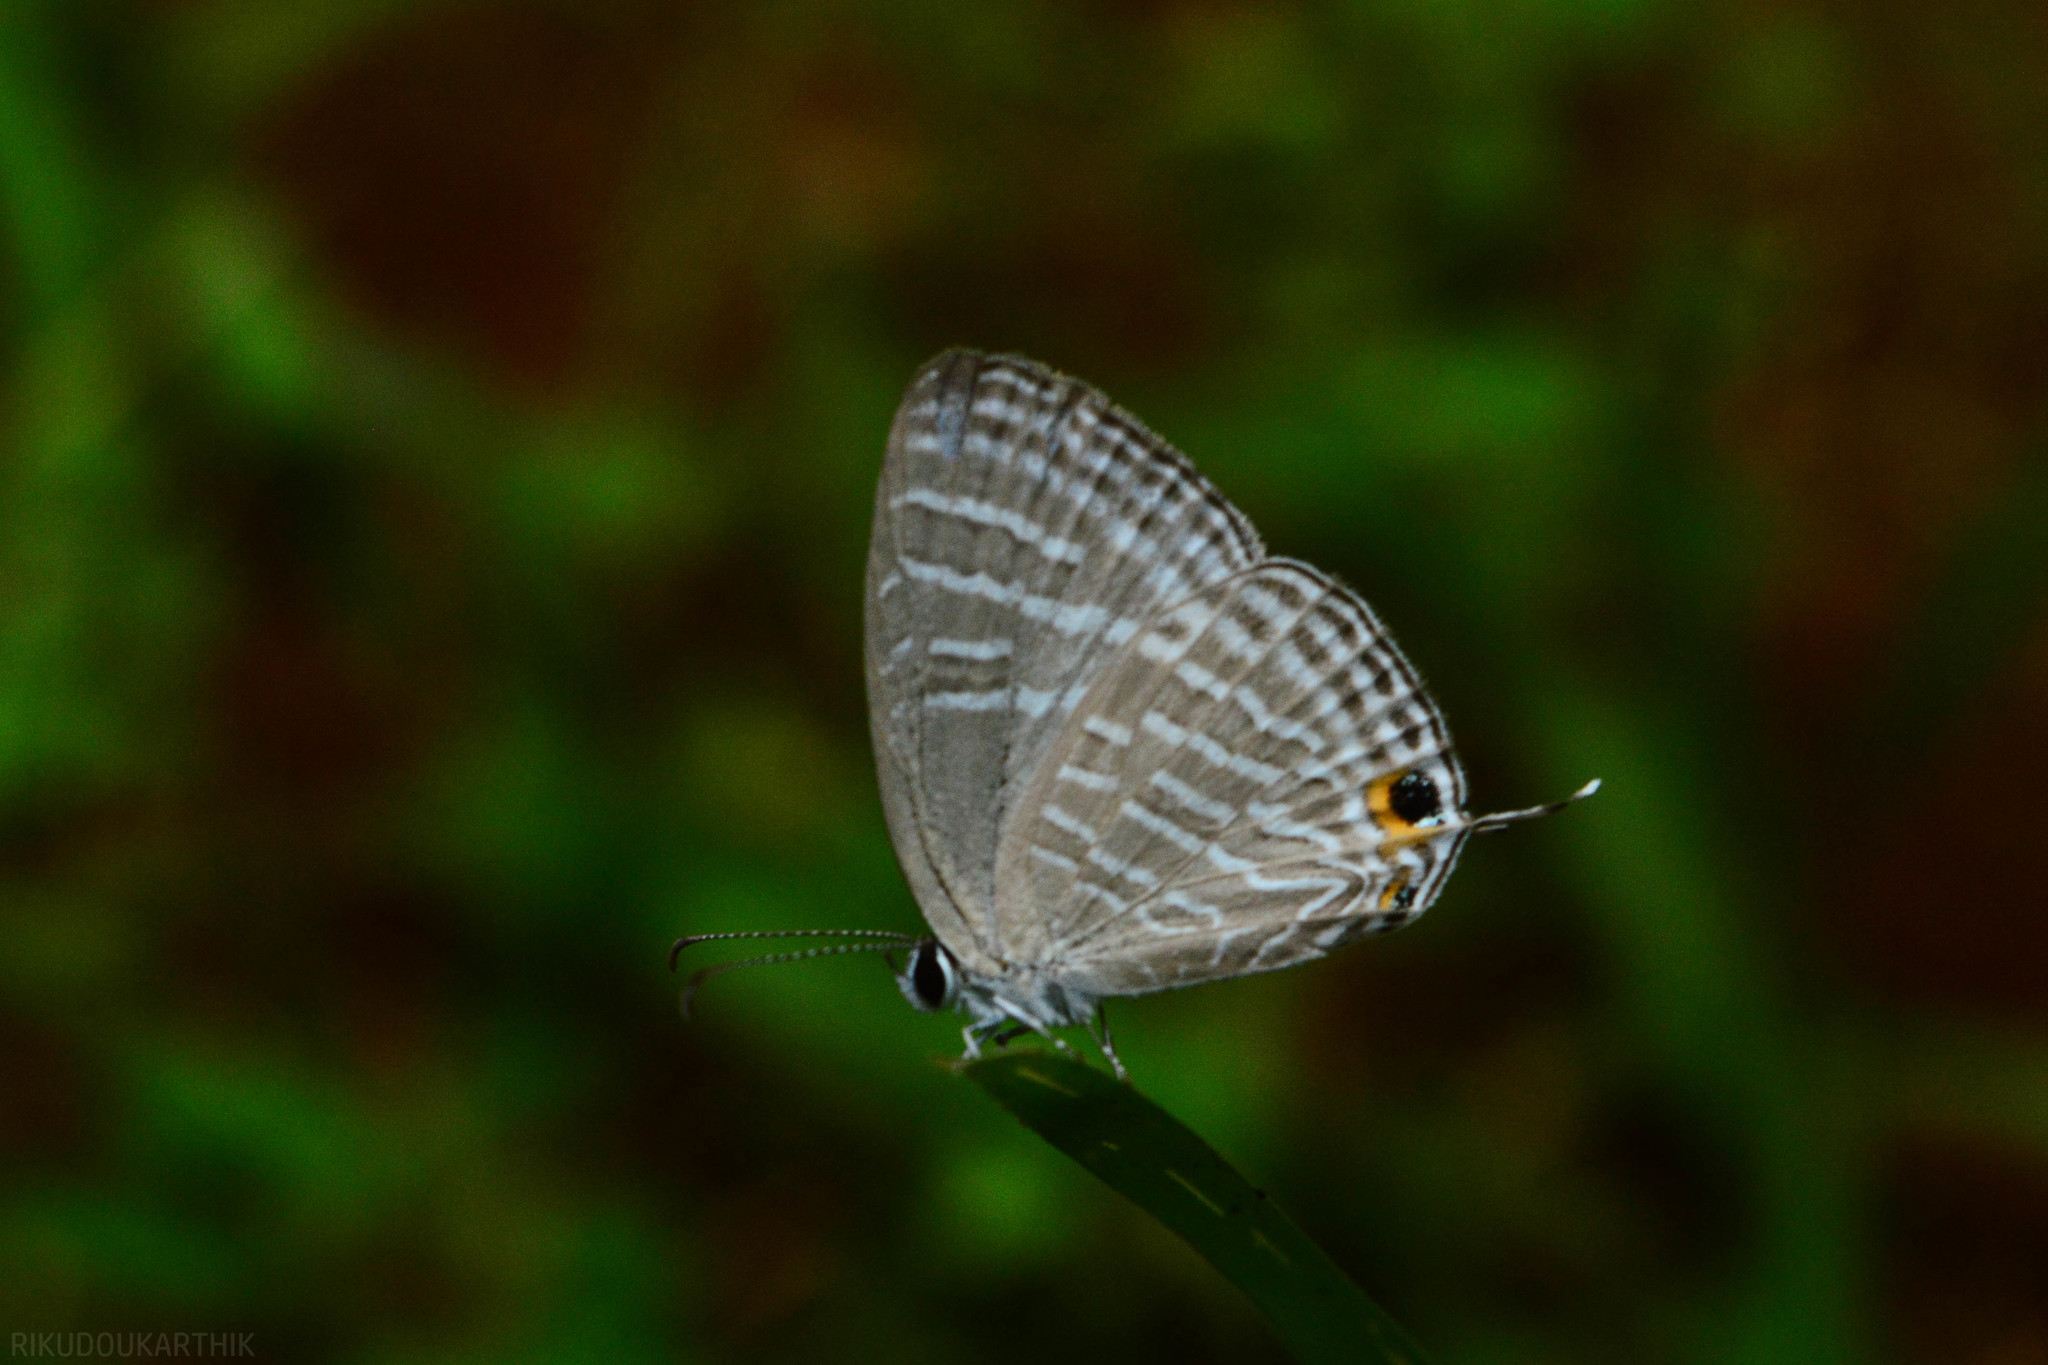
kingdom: Animalia
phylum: Arthropoda
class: Insecta
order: Lepidoptera
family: Lycaenidae
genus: Jamides
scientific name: Jamides celeno
